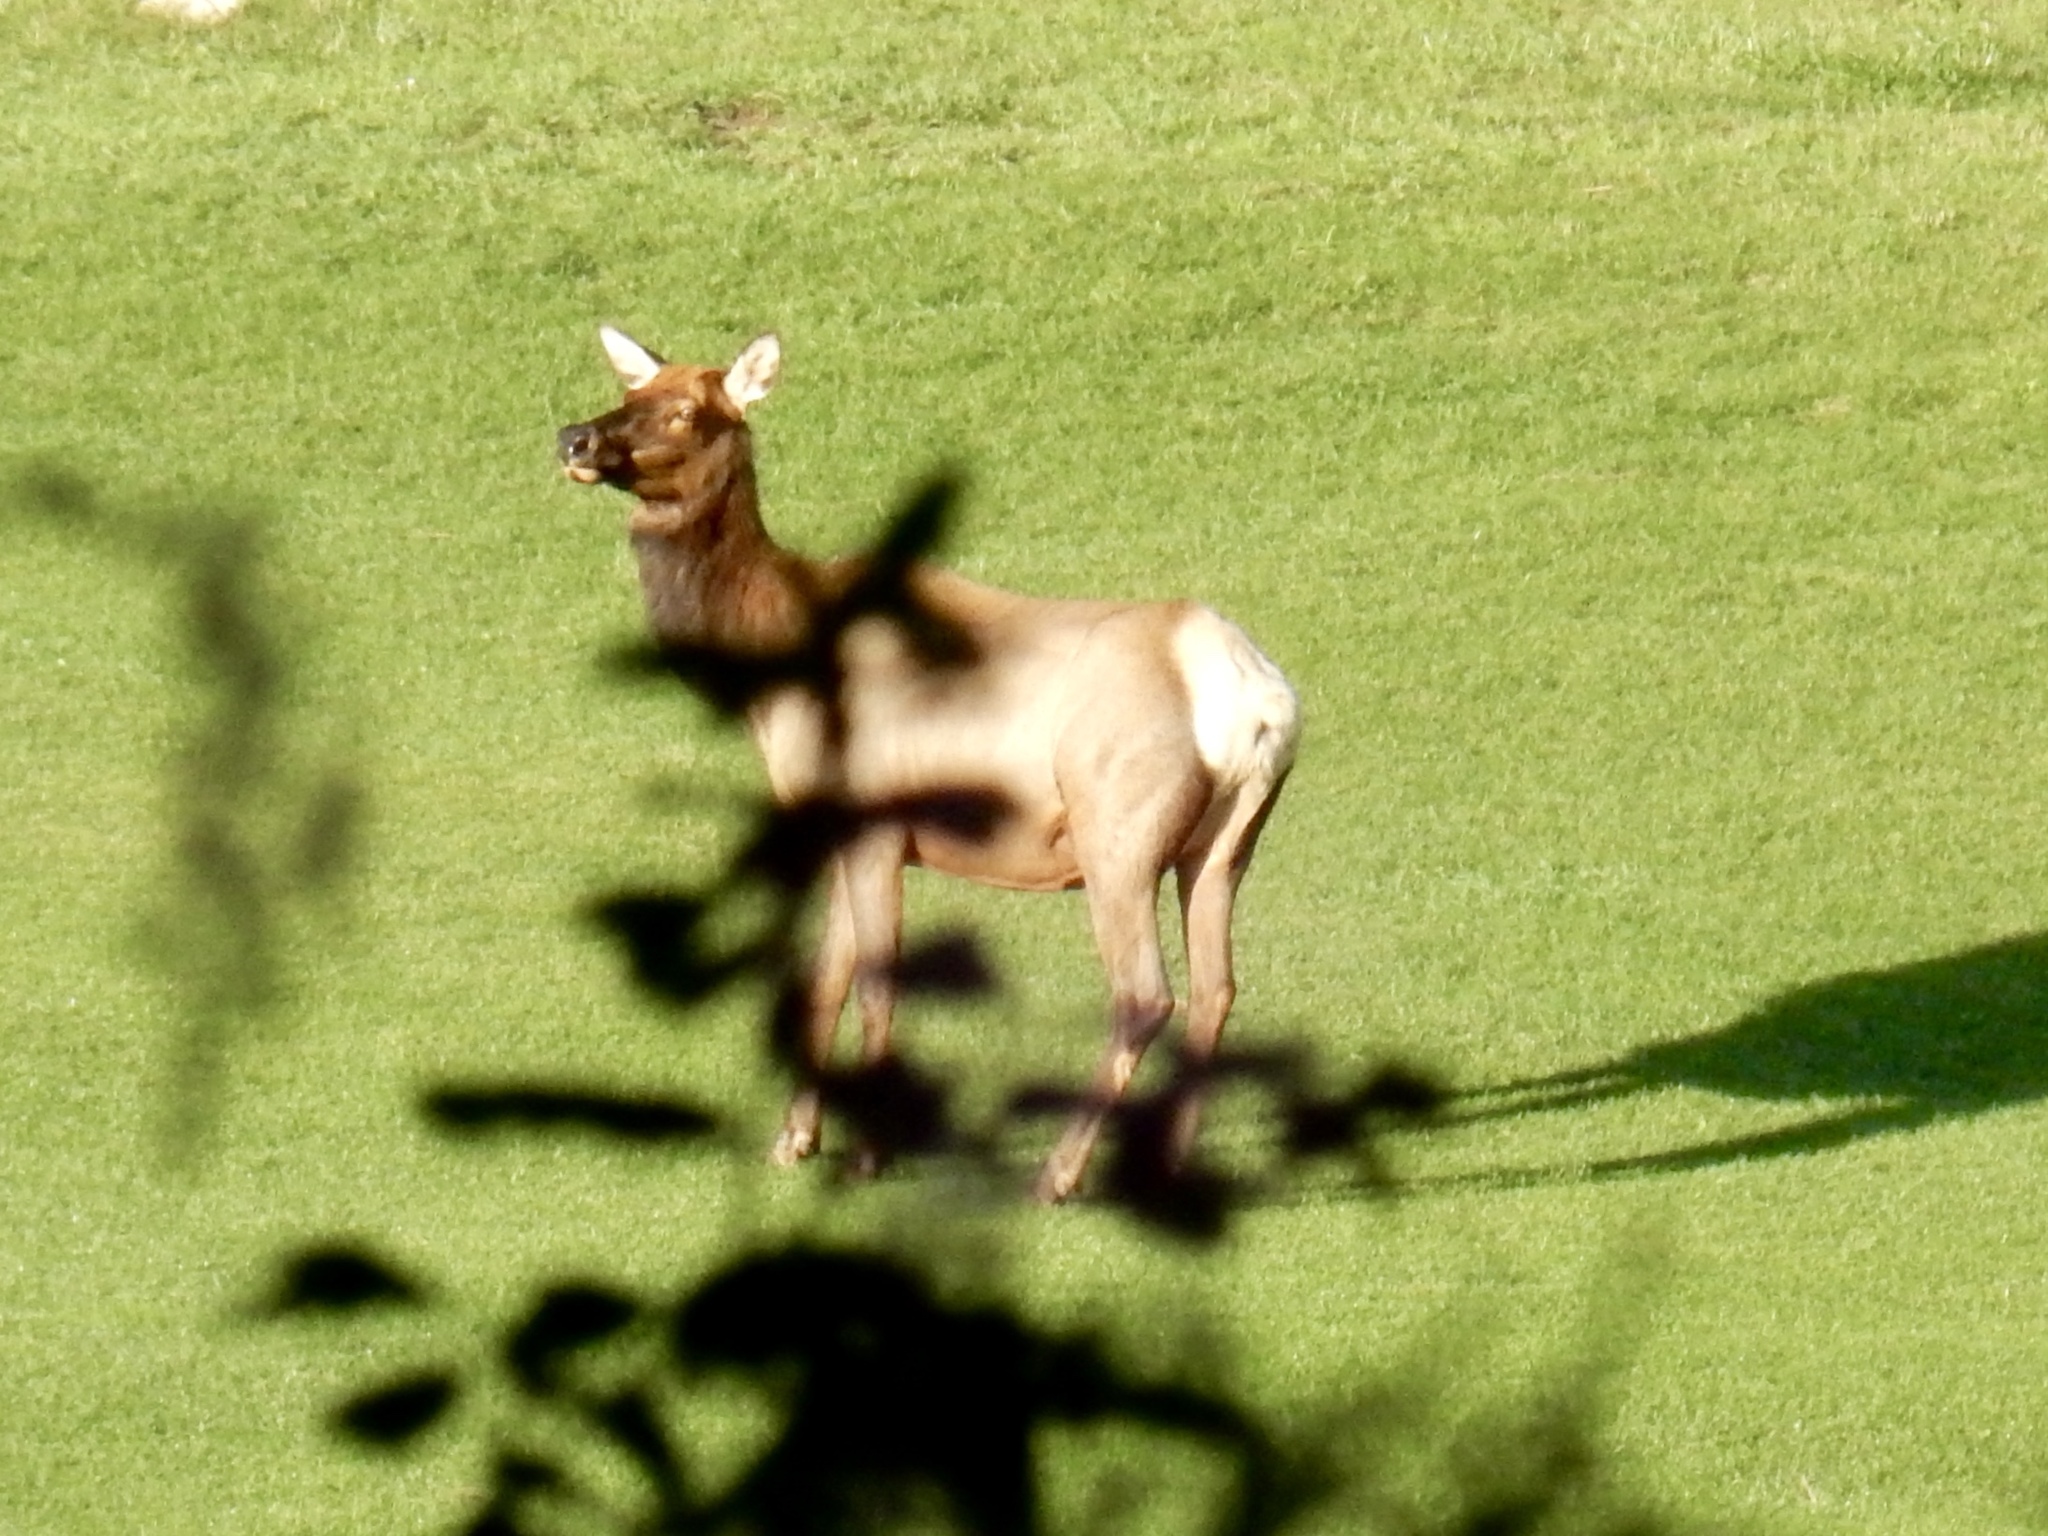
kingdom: Animalia
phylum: Chordata
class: Mammalia
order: Artiodactyla
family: Cervidae
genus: Cervus
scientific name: Cervus elaphus
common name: Red deer
